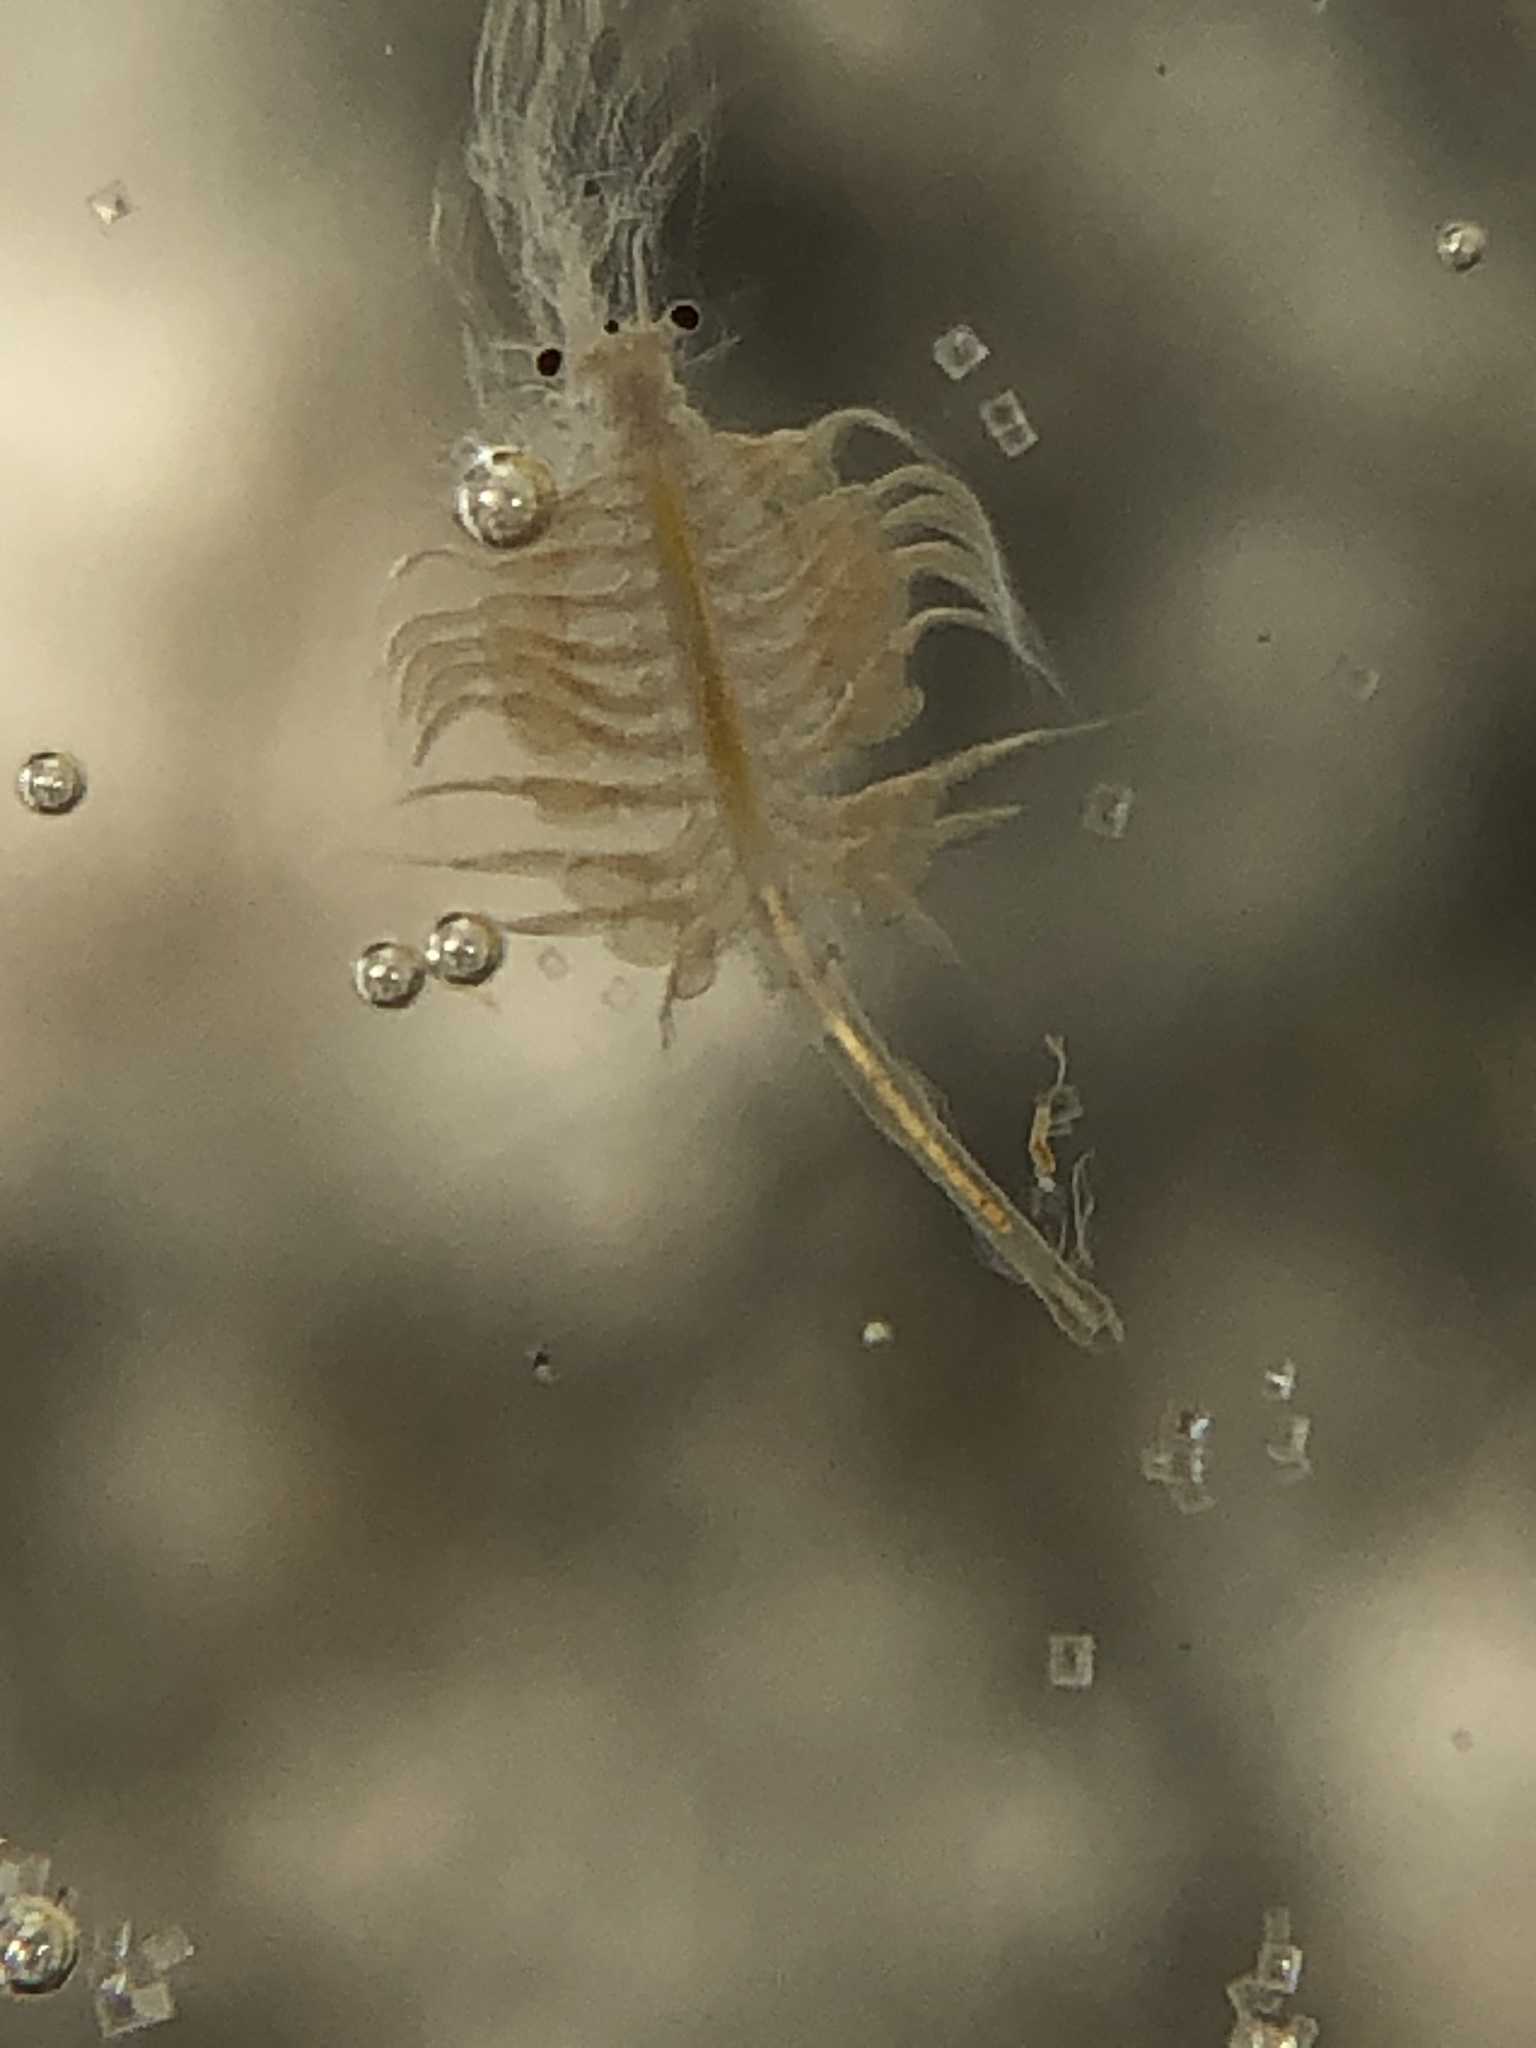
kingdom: Animalia
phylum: Arthropoda
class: Branchiopoda
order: Anostraca
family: Artemiidae
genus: Artemia
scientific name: Artemia monica
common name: Mono lake brine shrimp
